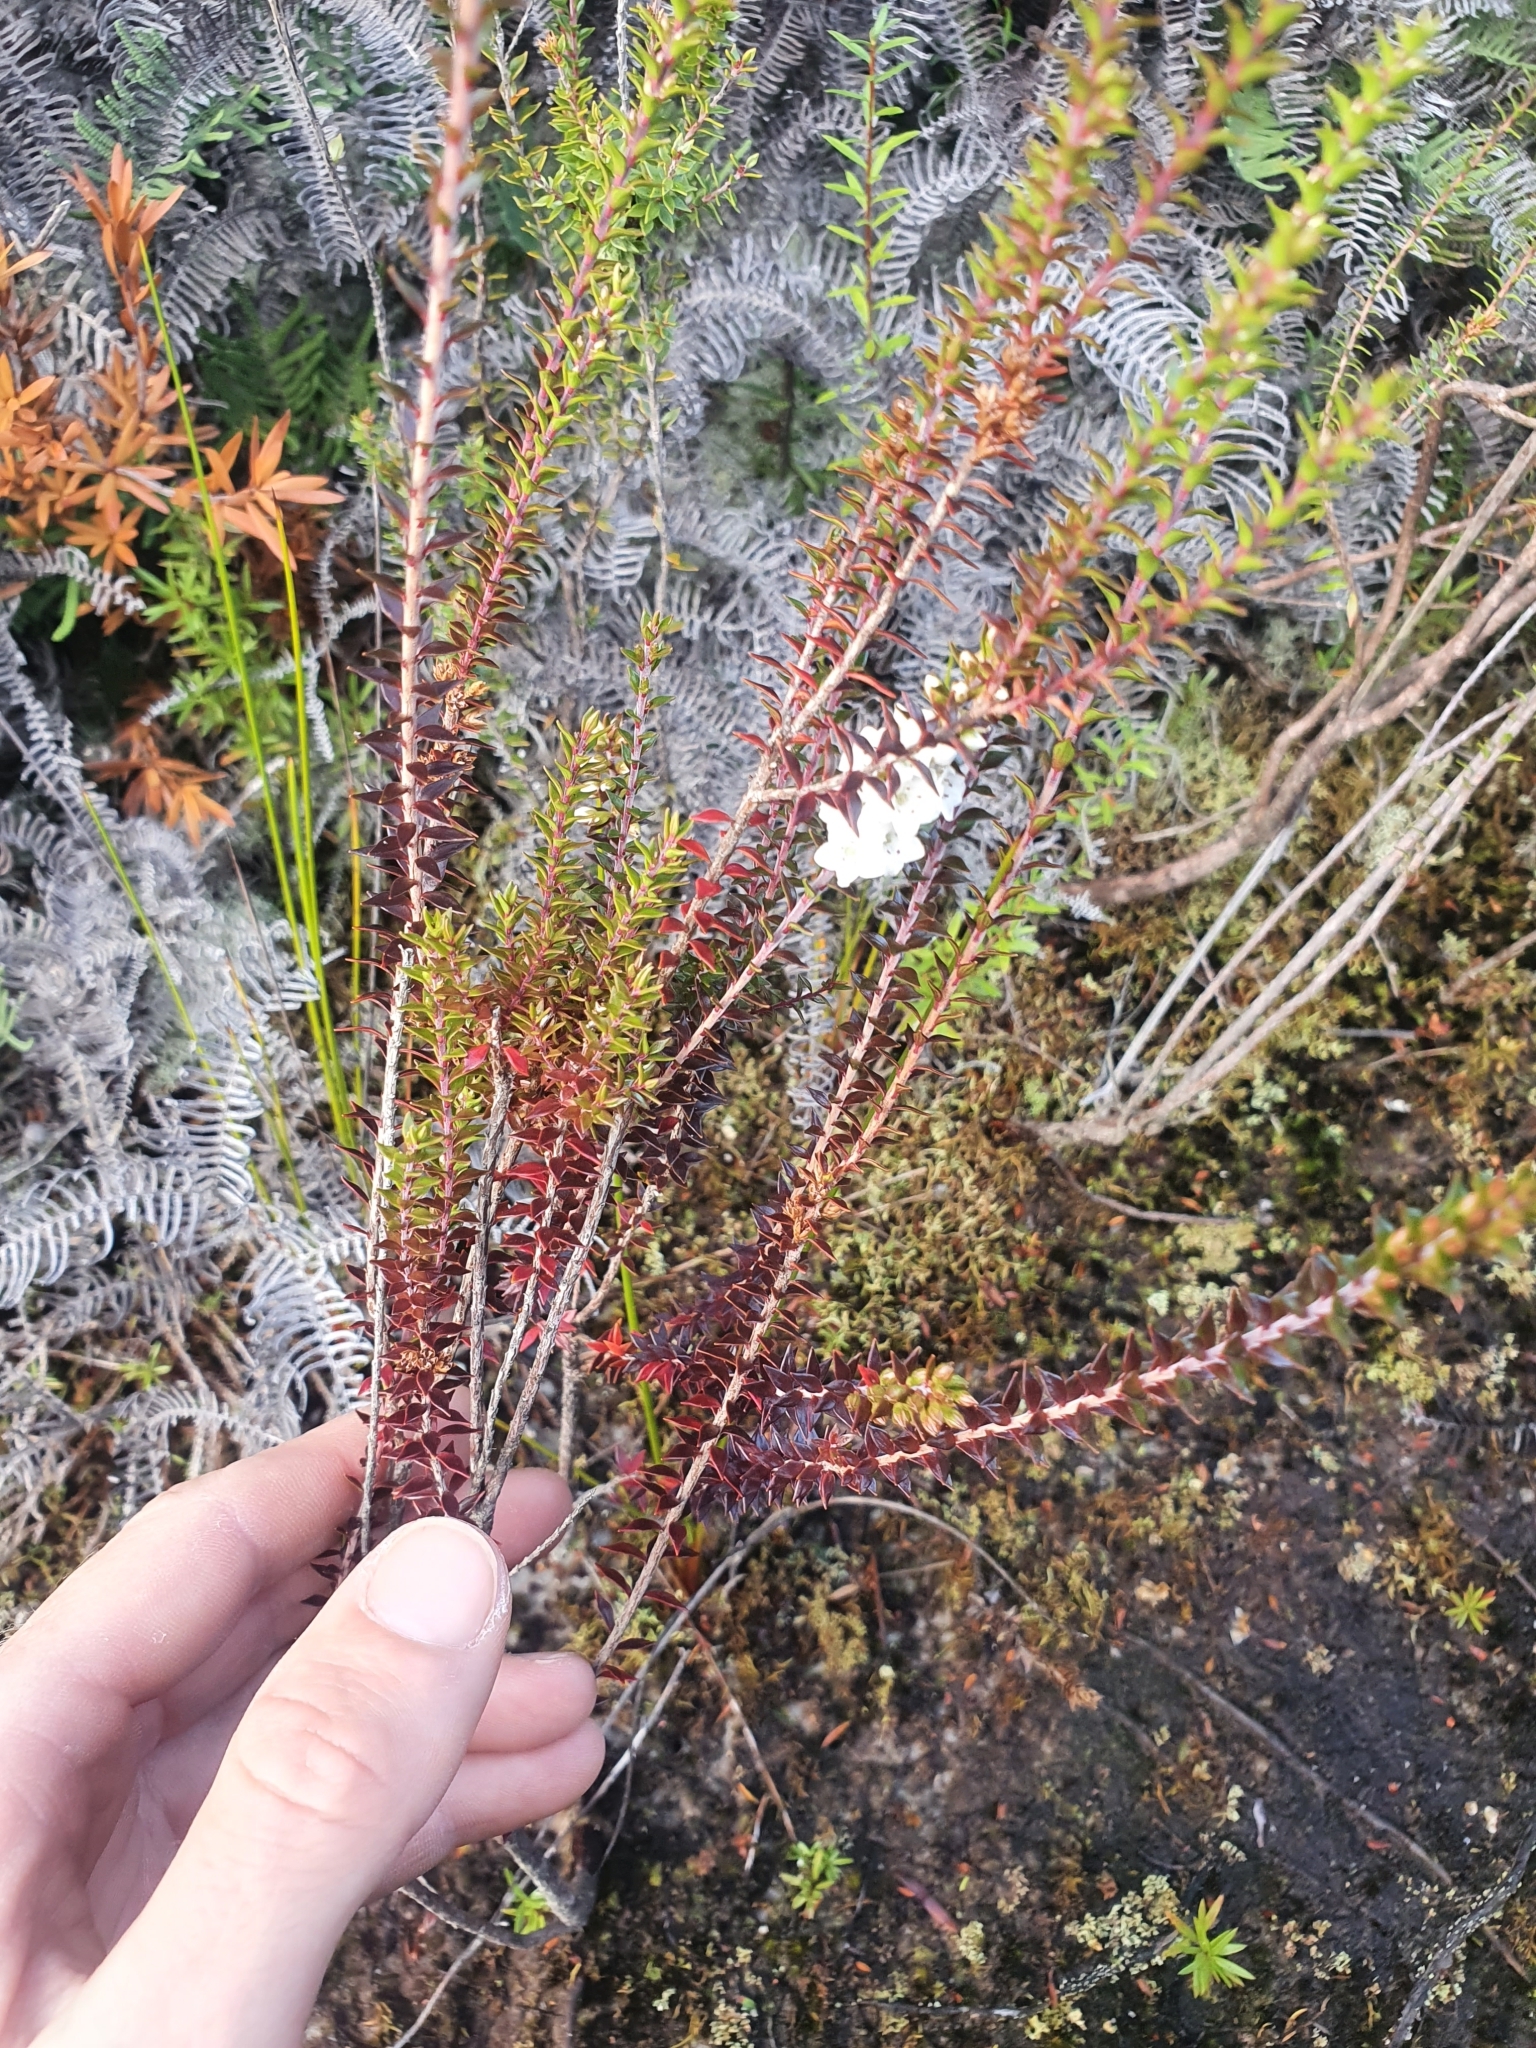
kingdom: Plantae
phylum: Tracheophyta
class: Magnoliopsida
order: Ericales
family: Ericaceae
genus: Epacris
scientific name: Epacris pauciflora
